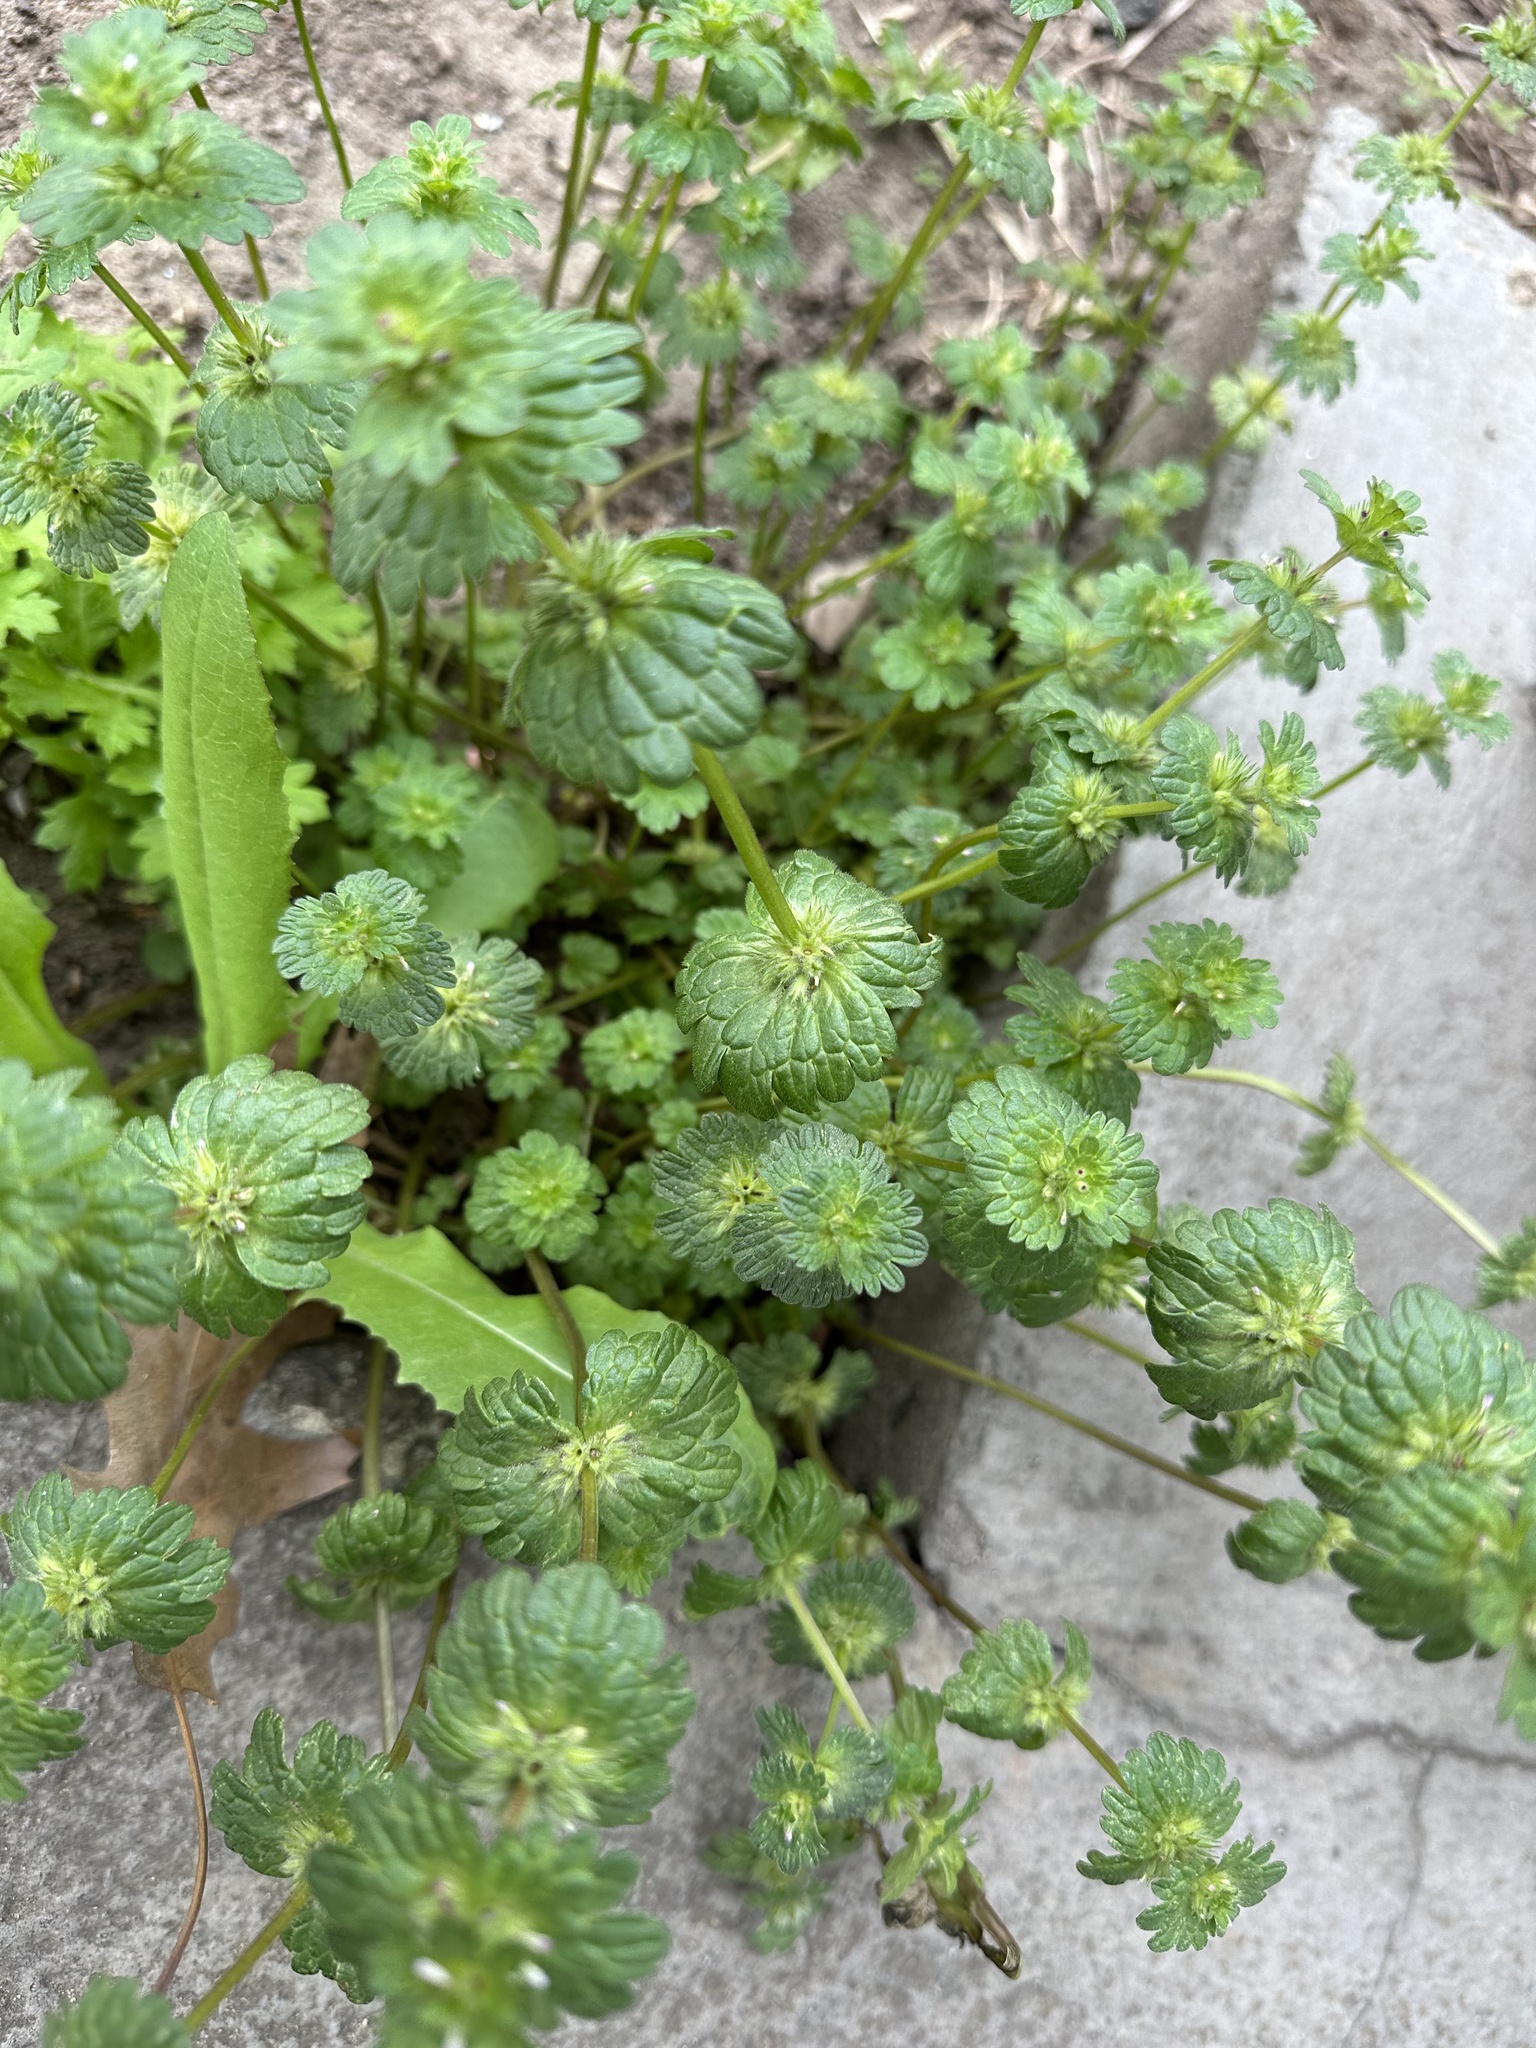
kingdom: Plantae
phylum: Tracheophyta
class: Magnoliopsida
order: Lamiales
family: Lamiaceae
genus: Lamium
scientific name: Lamium amplexicaule
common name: Henbit dead-nettle
